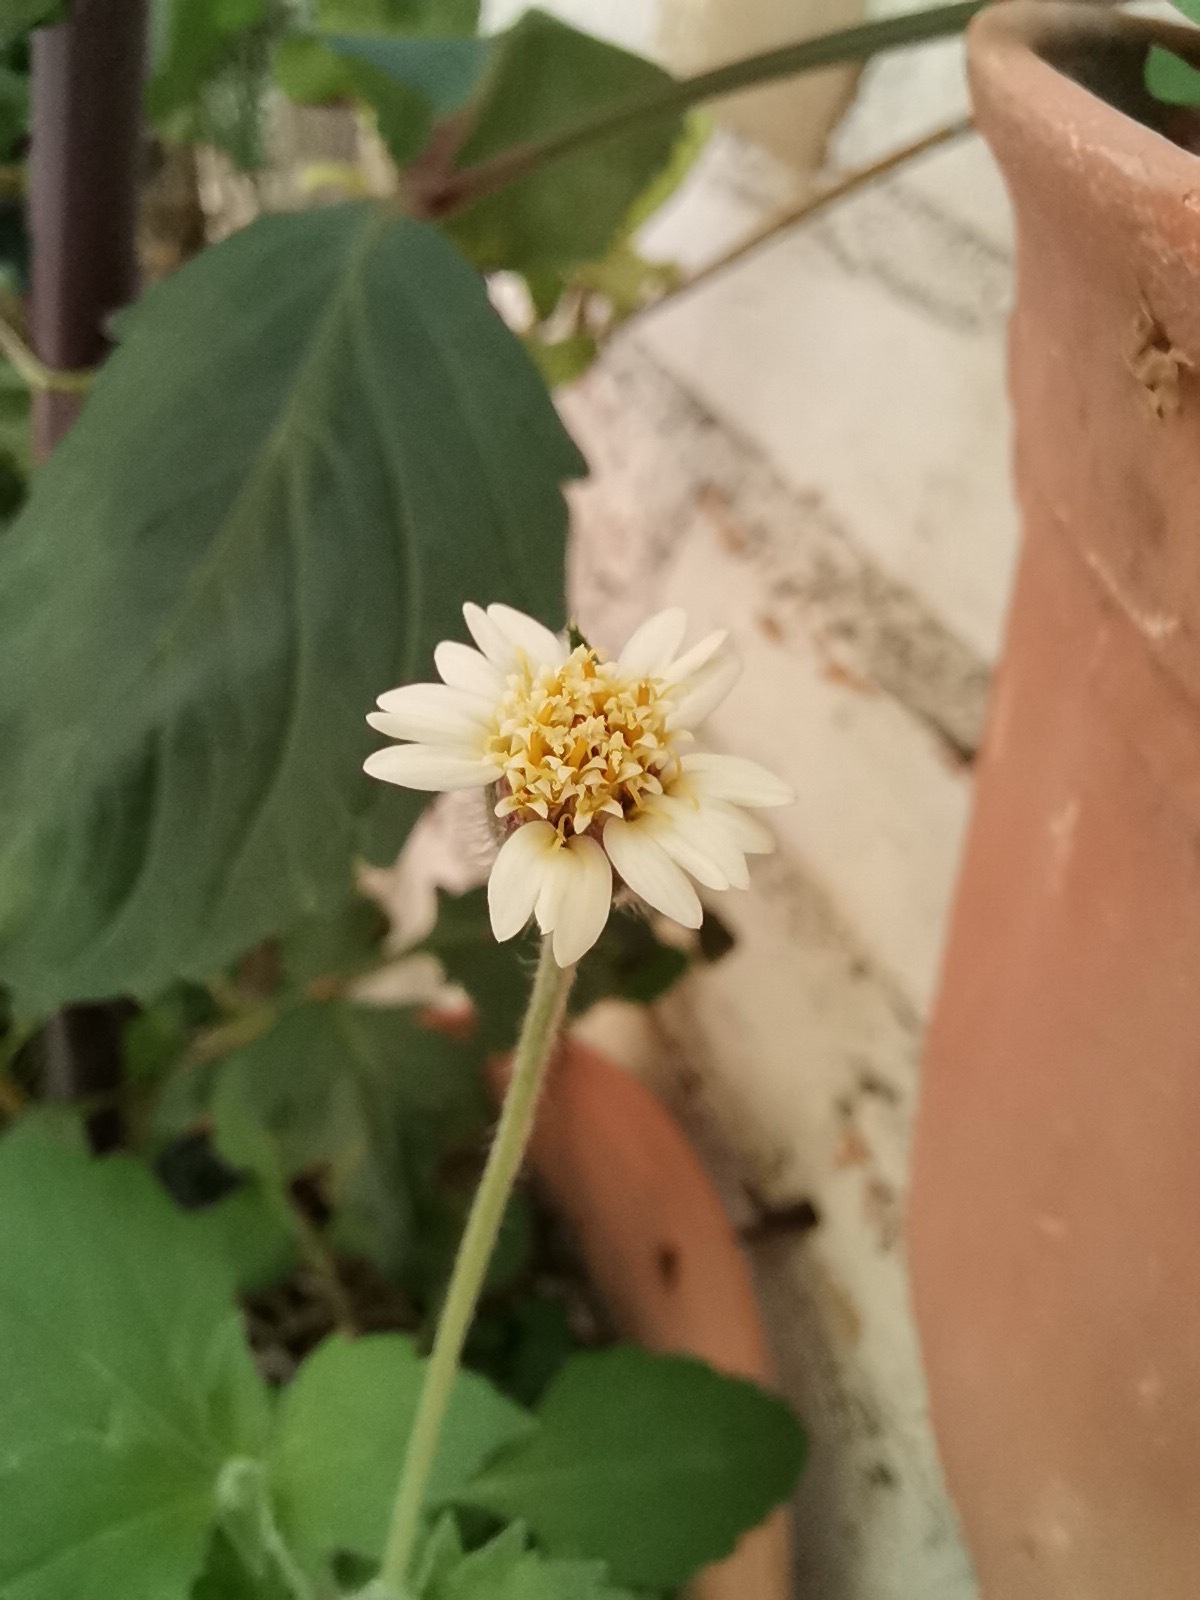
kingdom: Plantae
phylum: Tracheophyta
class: Magnoliopsida
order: Asterales
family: Asteraceae
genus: Tridax
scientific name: Tridax procumbens
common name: Coatbuttons
